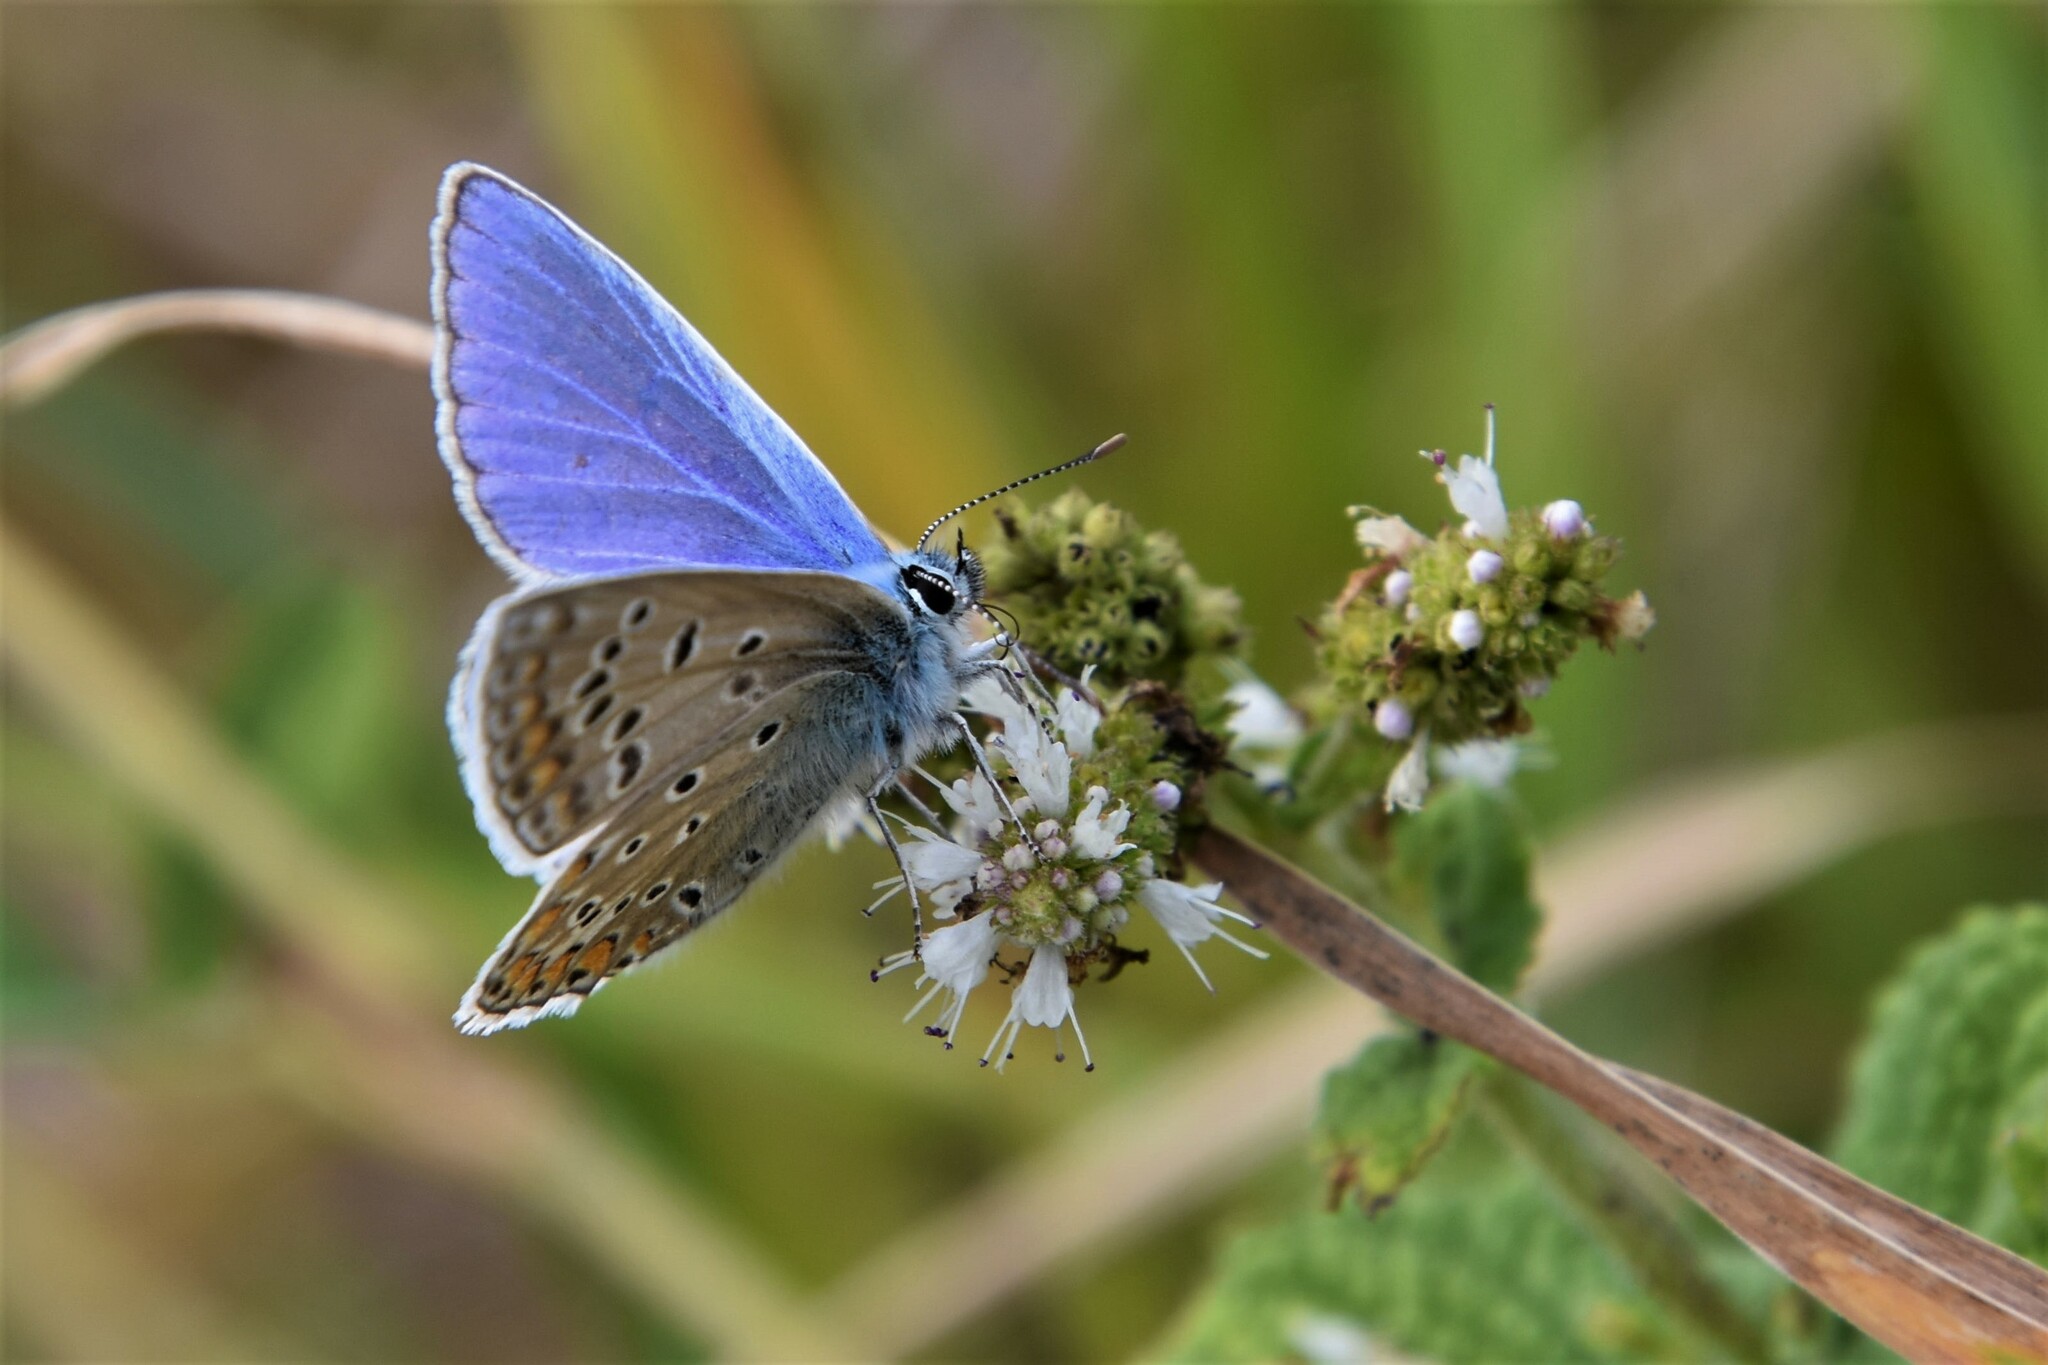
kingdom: Animalia
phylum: Arthropoda
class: Insecta
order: Lepidoptera
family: Lycaenidae
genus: Polyommatus
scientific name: Polyommatus icarus
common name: Common blue
